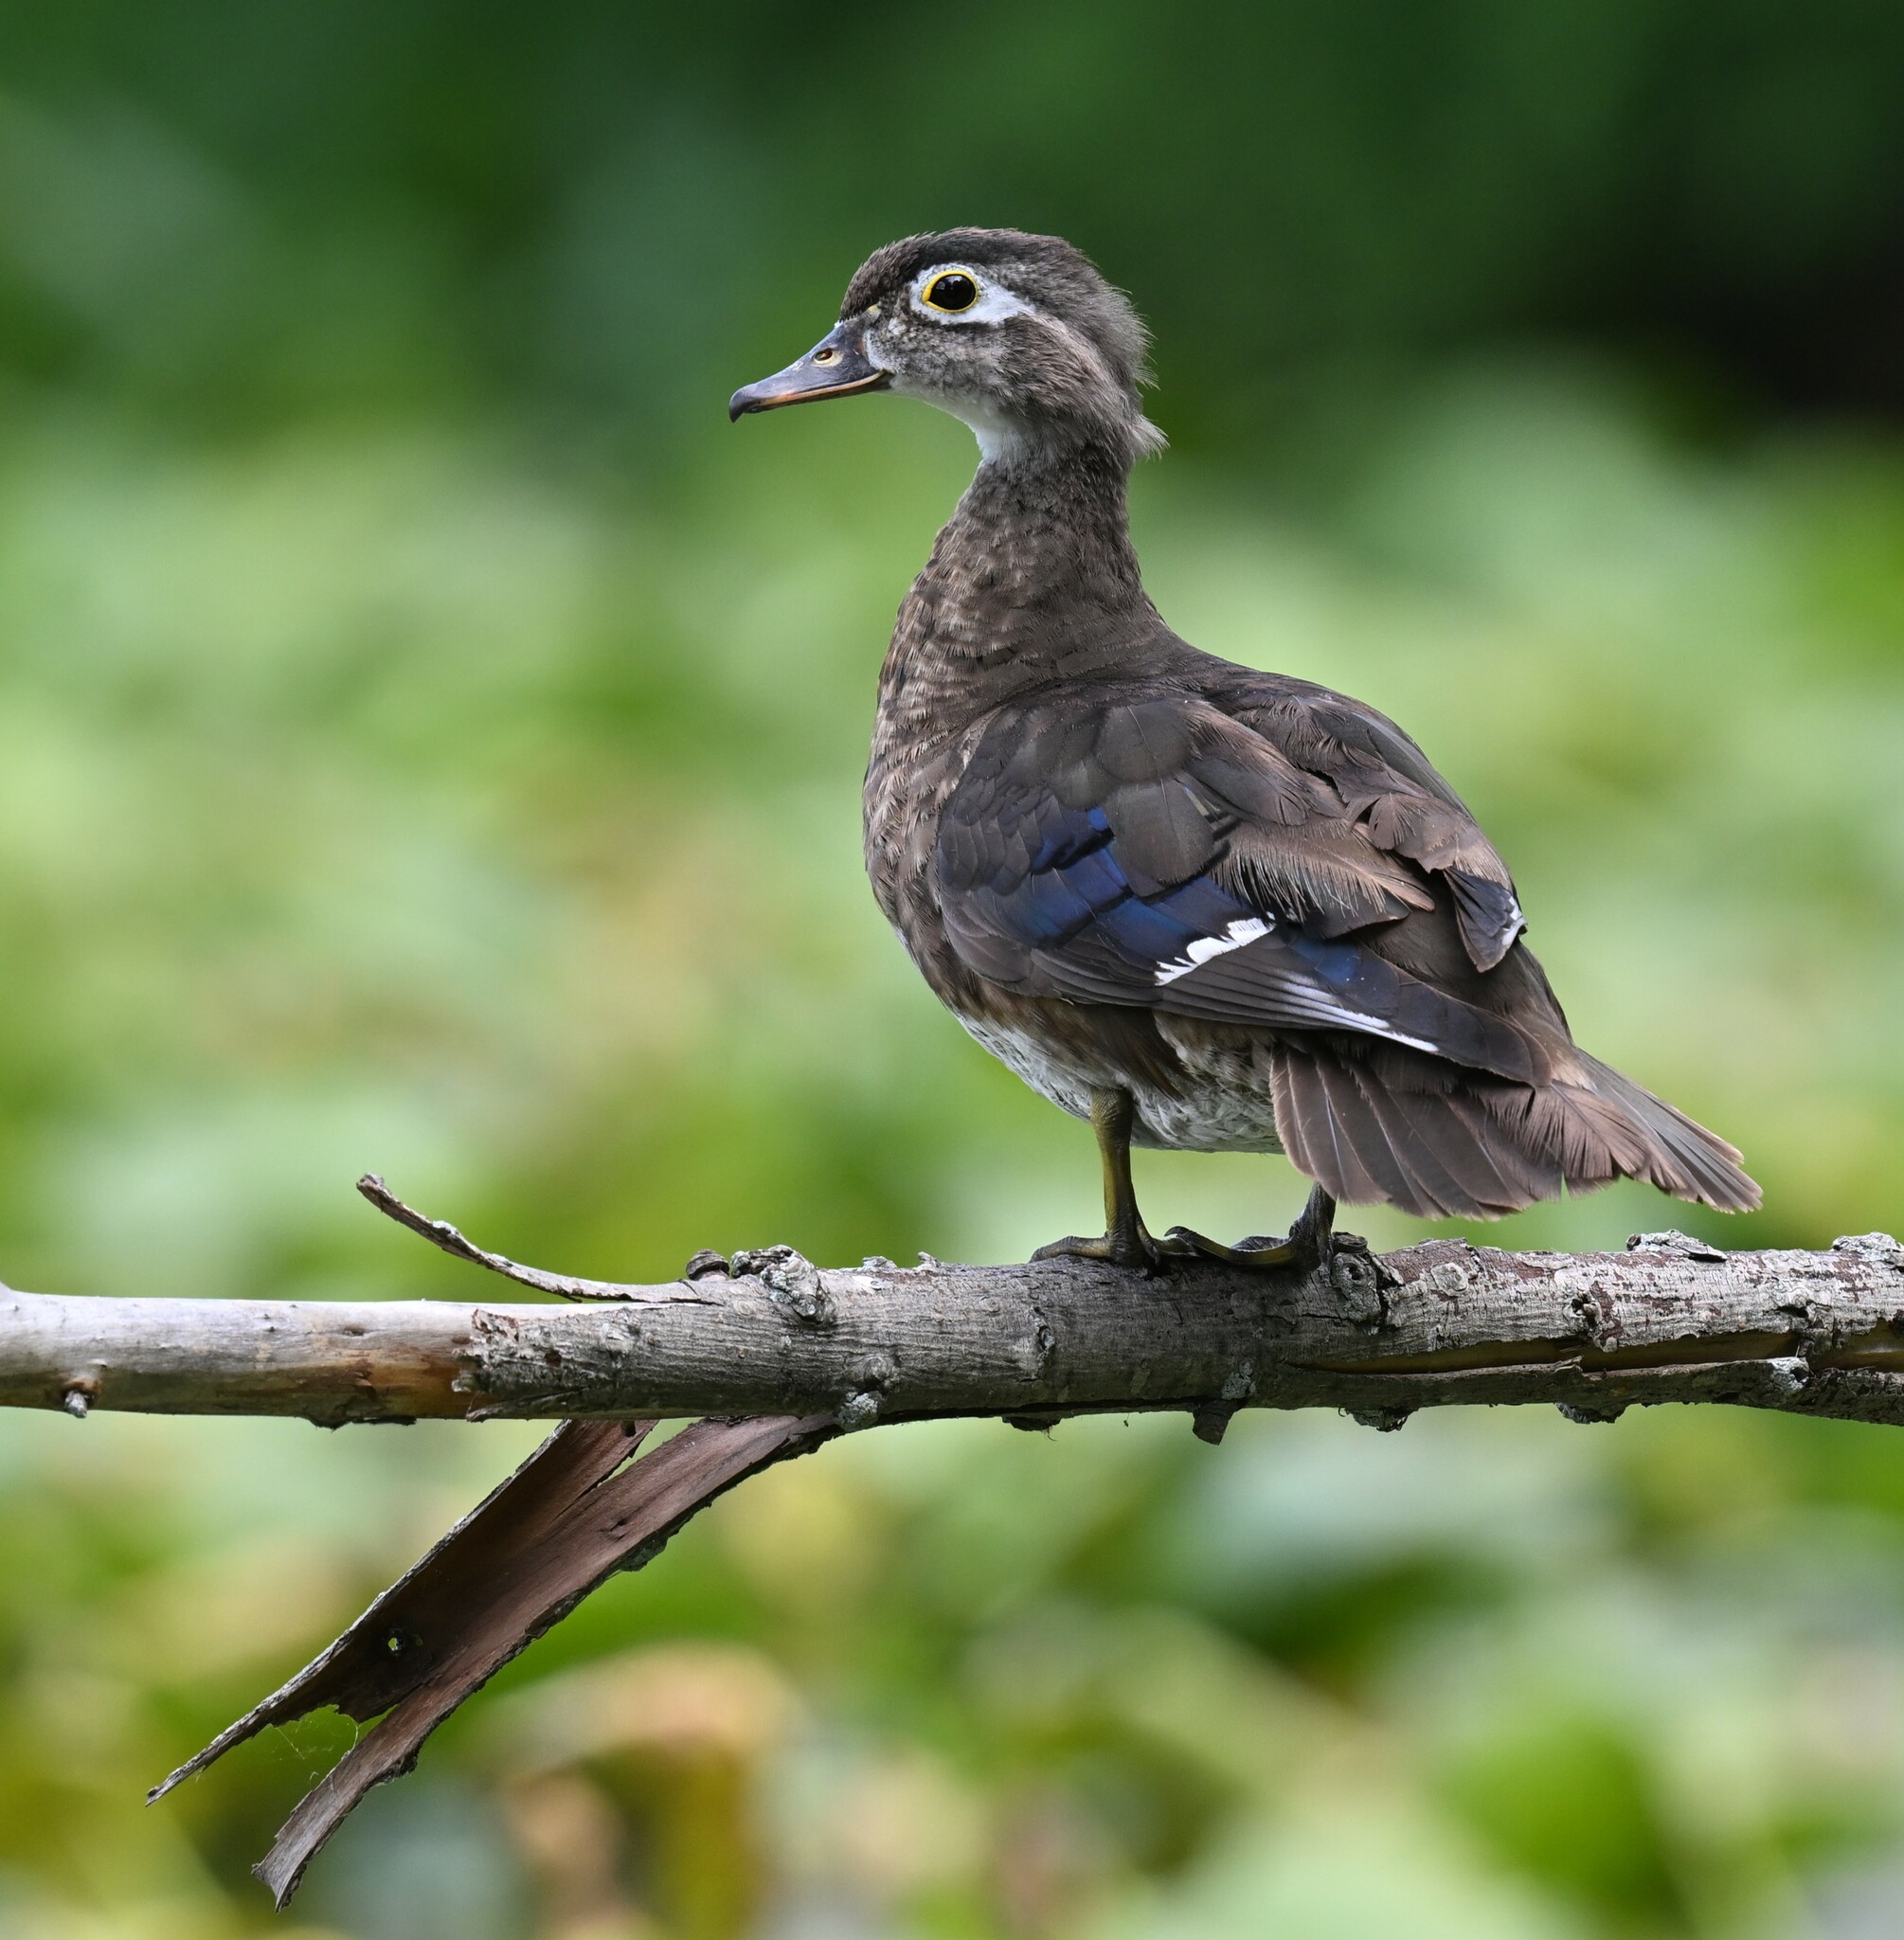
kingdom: Animalia
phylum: Chordata
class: Aves
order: Anseriformes
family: Anatidae
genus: Aix
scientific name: Aix sponsa
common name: Wood duck
